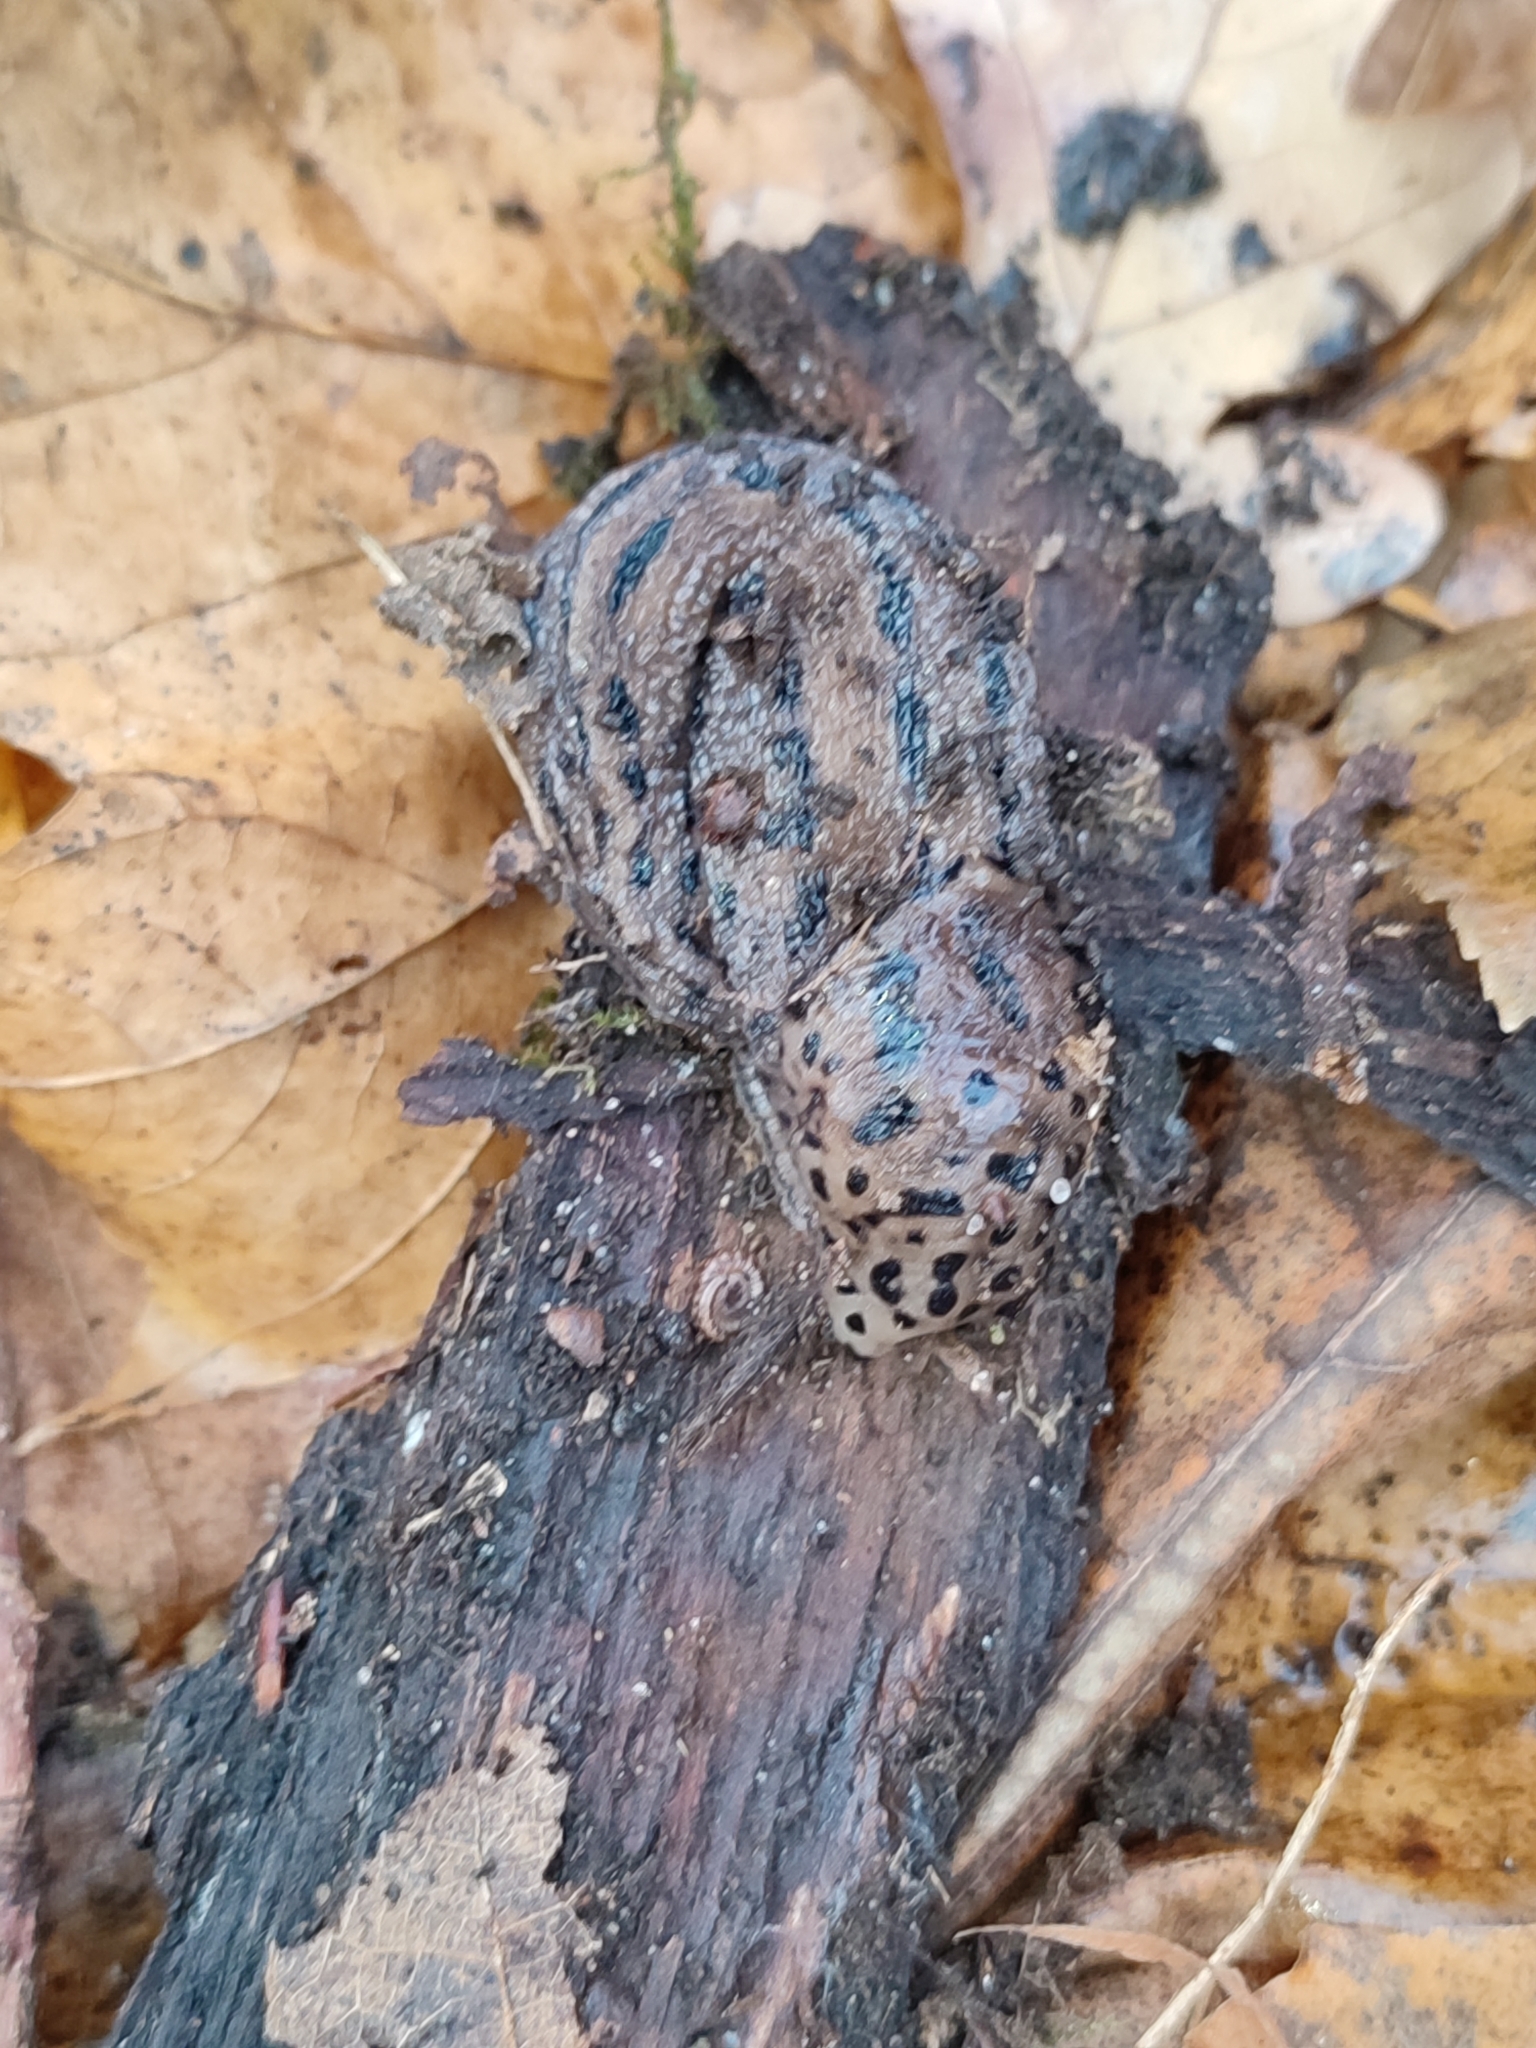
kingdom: Animalia
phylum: Mollusca
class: Gastropoda
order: Stylommatophora
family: Limacidae
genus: Limax
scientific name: Limax maximus
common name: Great grey slug
